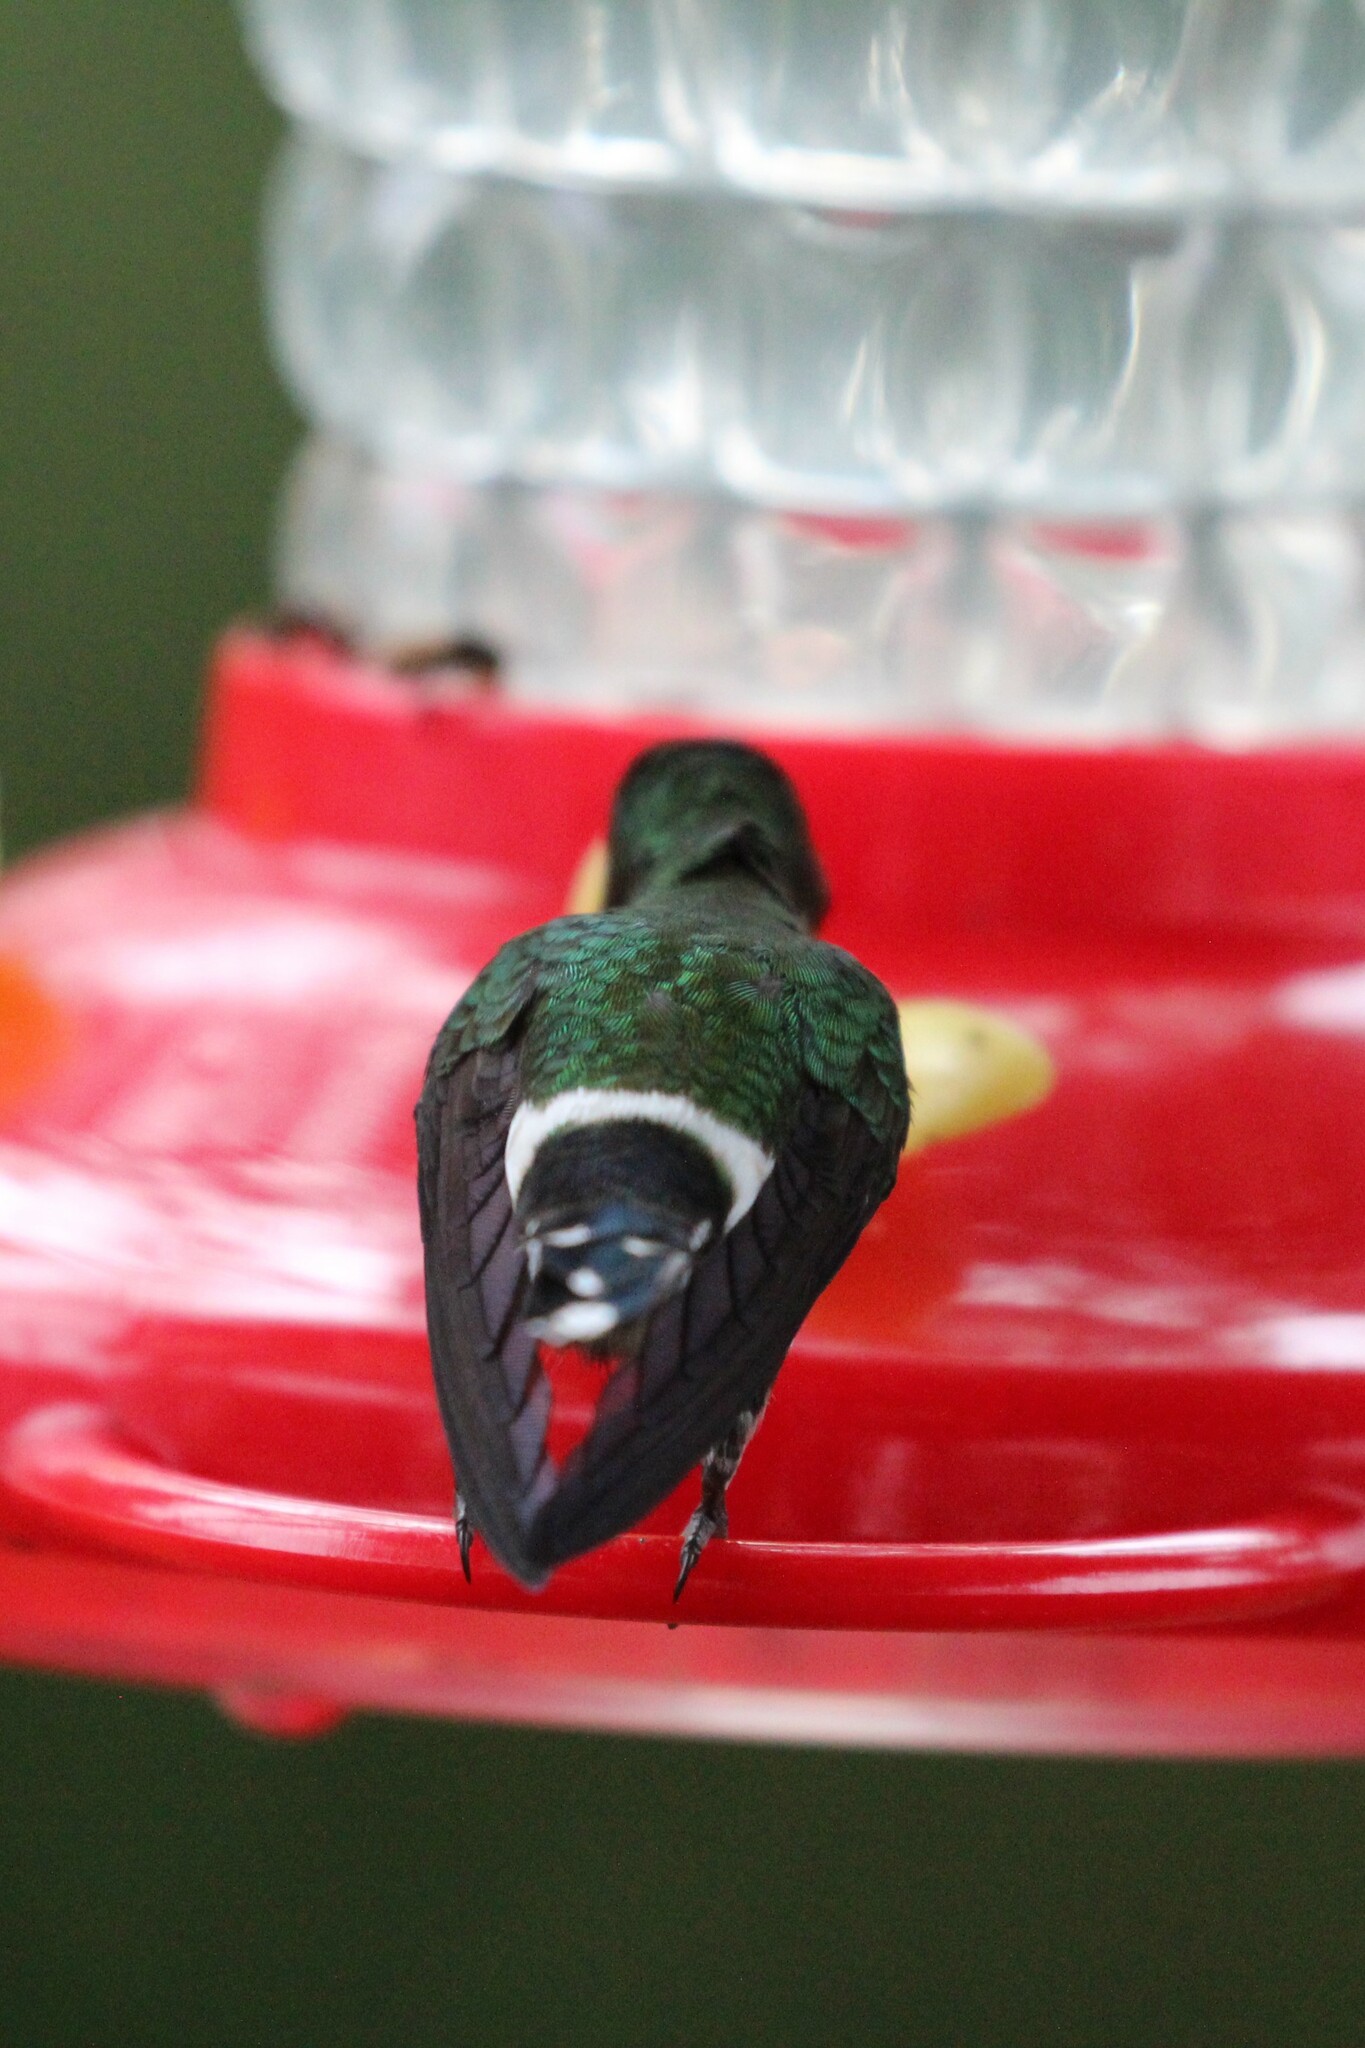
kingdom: Animalia
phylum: Chordata
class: Aves
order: Apodiformes
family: Trochilidae
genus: Discosura
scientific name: Discosura conversii
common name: Green thorntail
